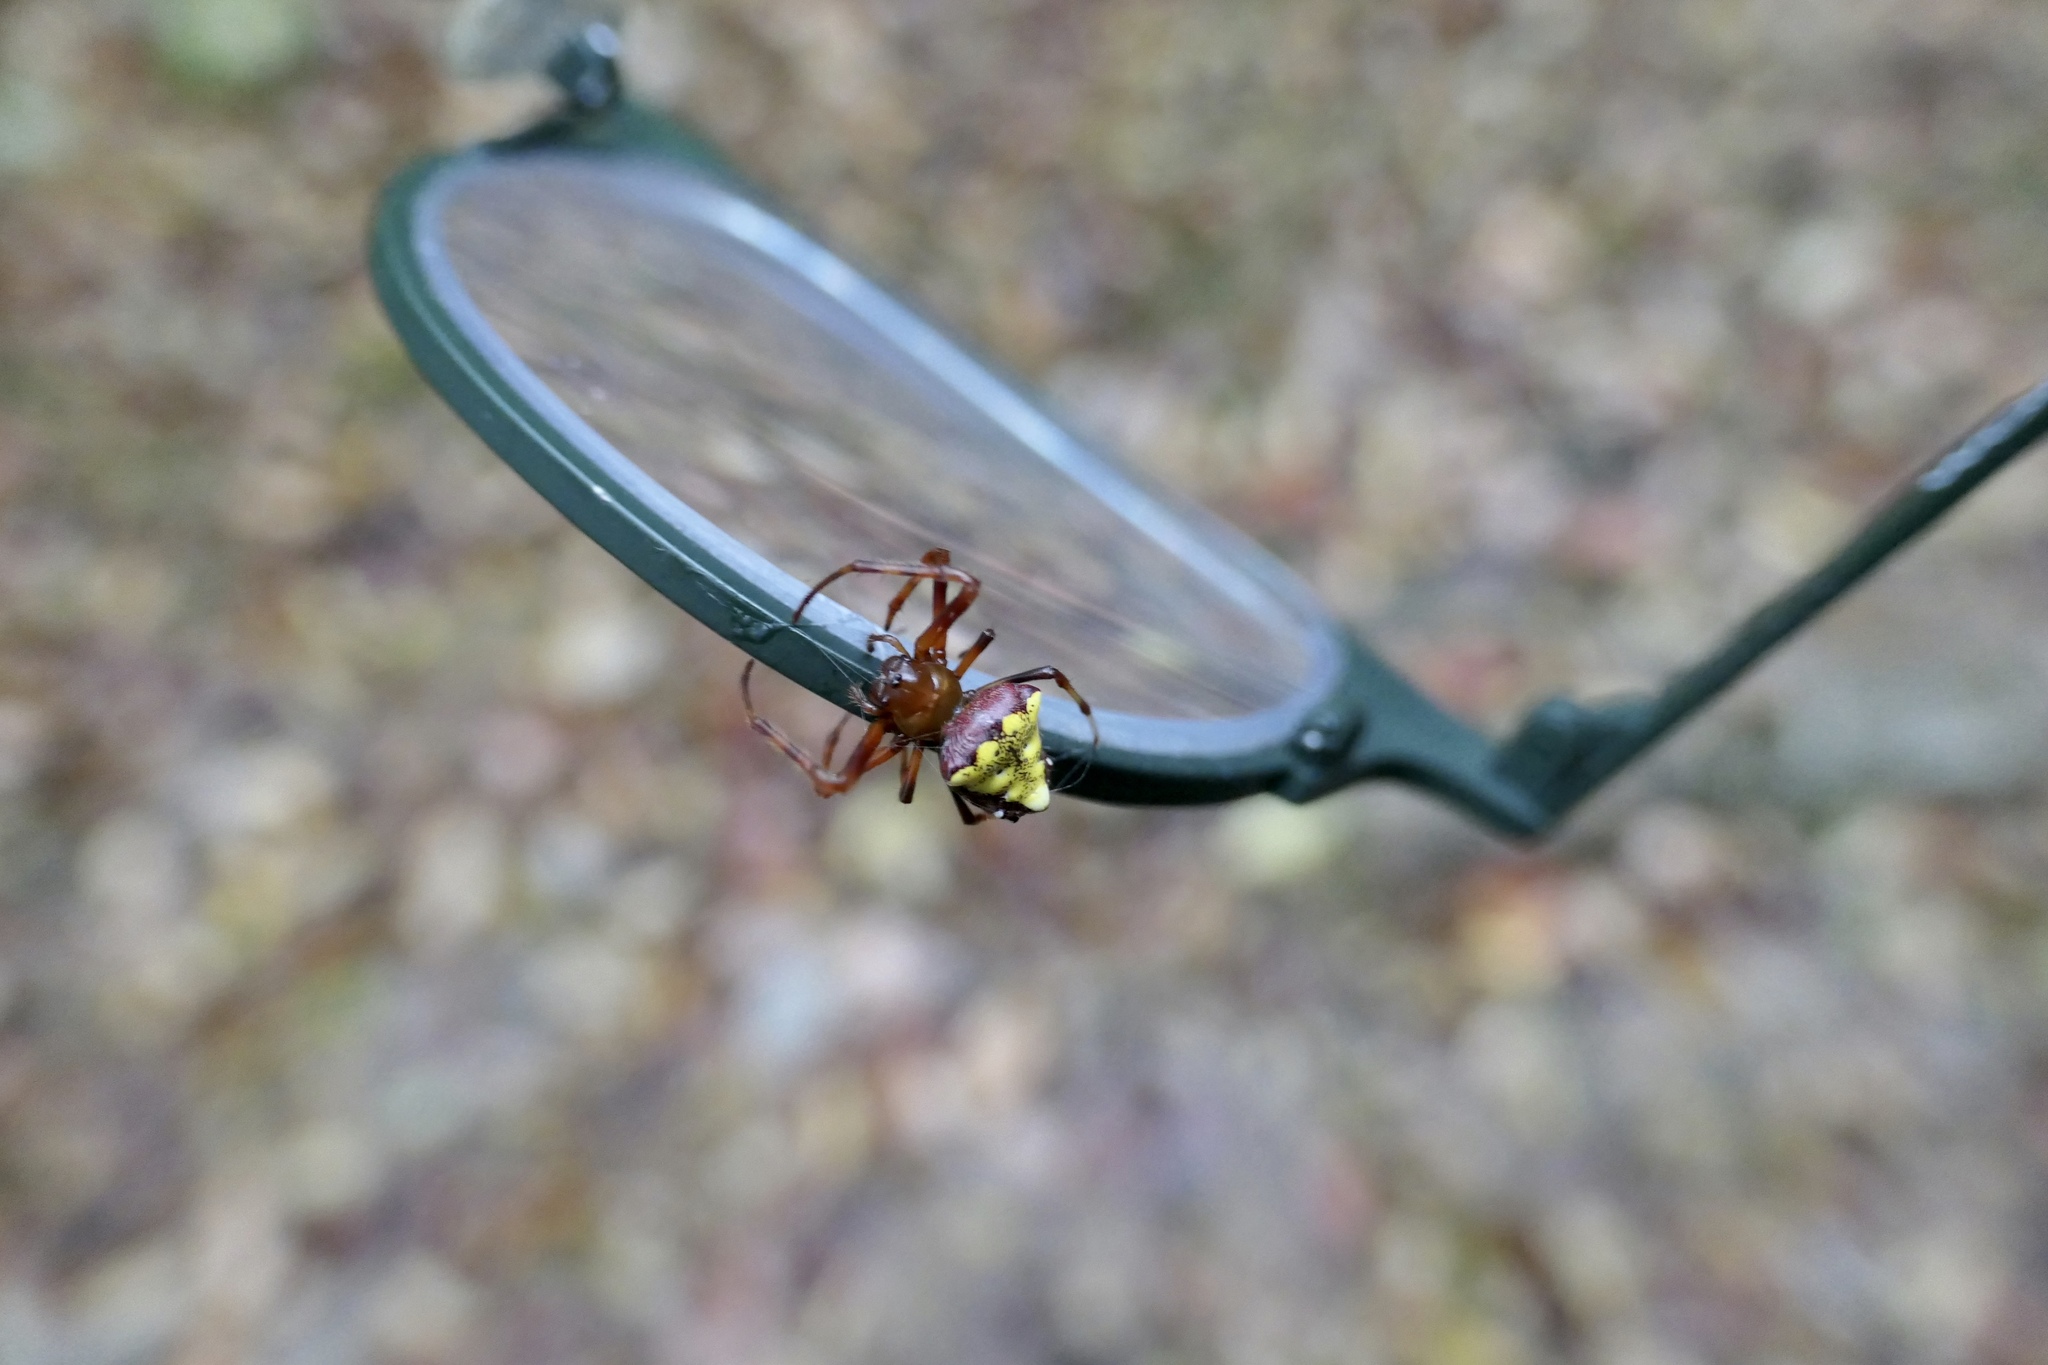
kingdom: Animalia
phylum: Arthropoda
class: Arachnida
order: Araneae
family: Araneidae
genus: Verrucosa
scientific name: Verrucosa arenata
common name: Orb weavers
